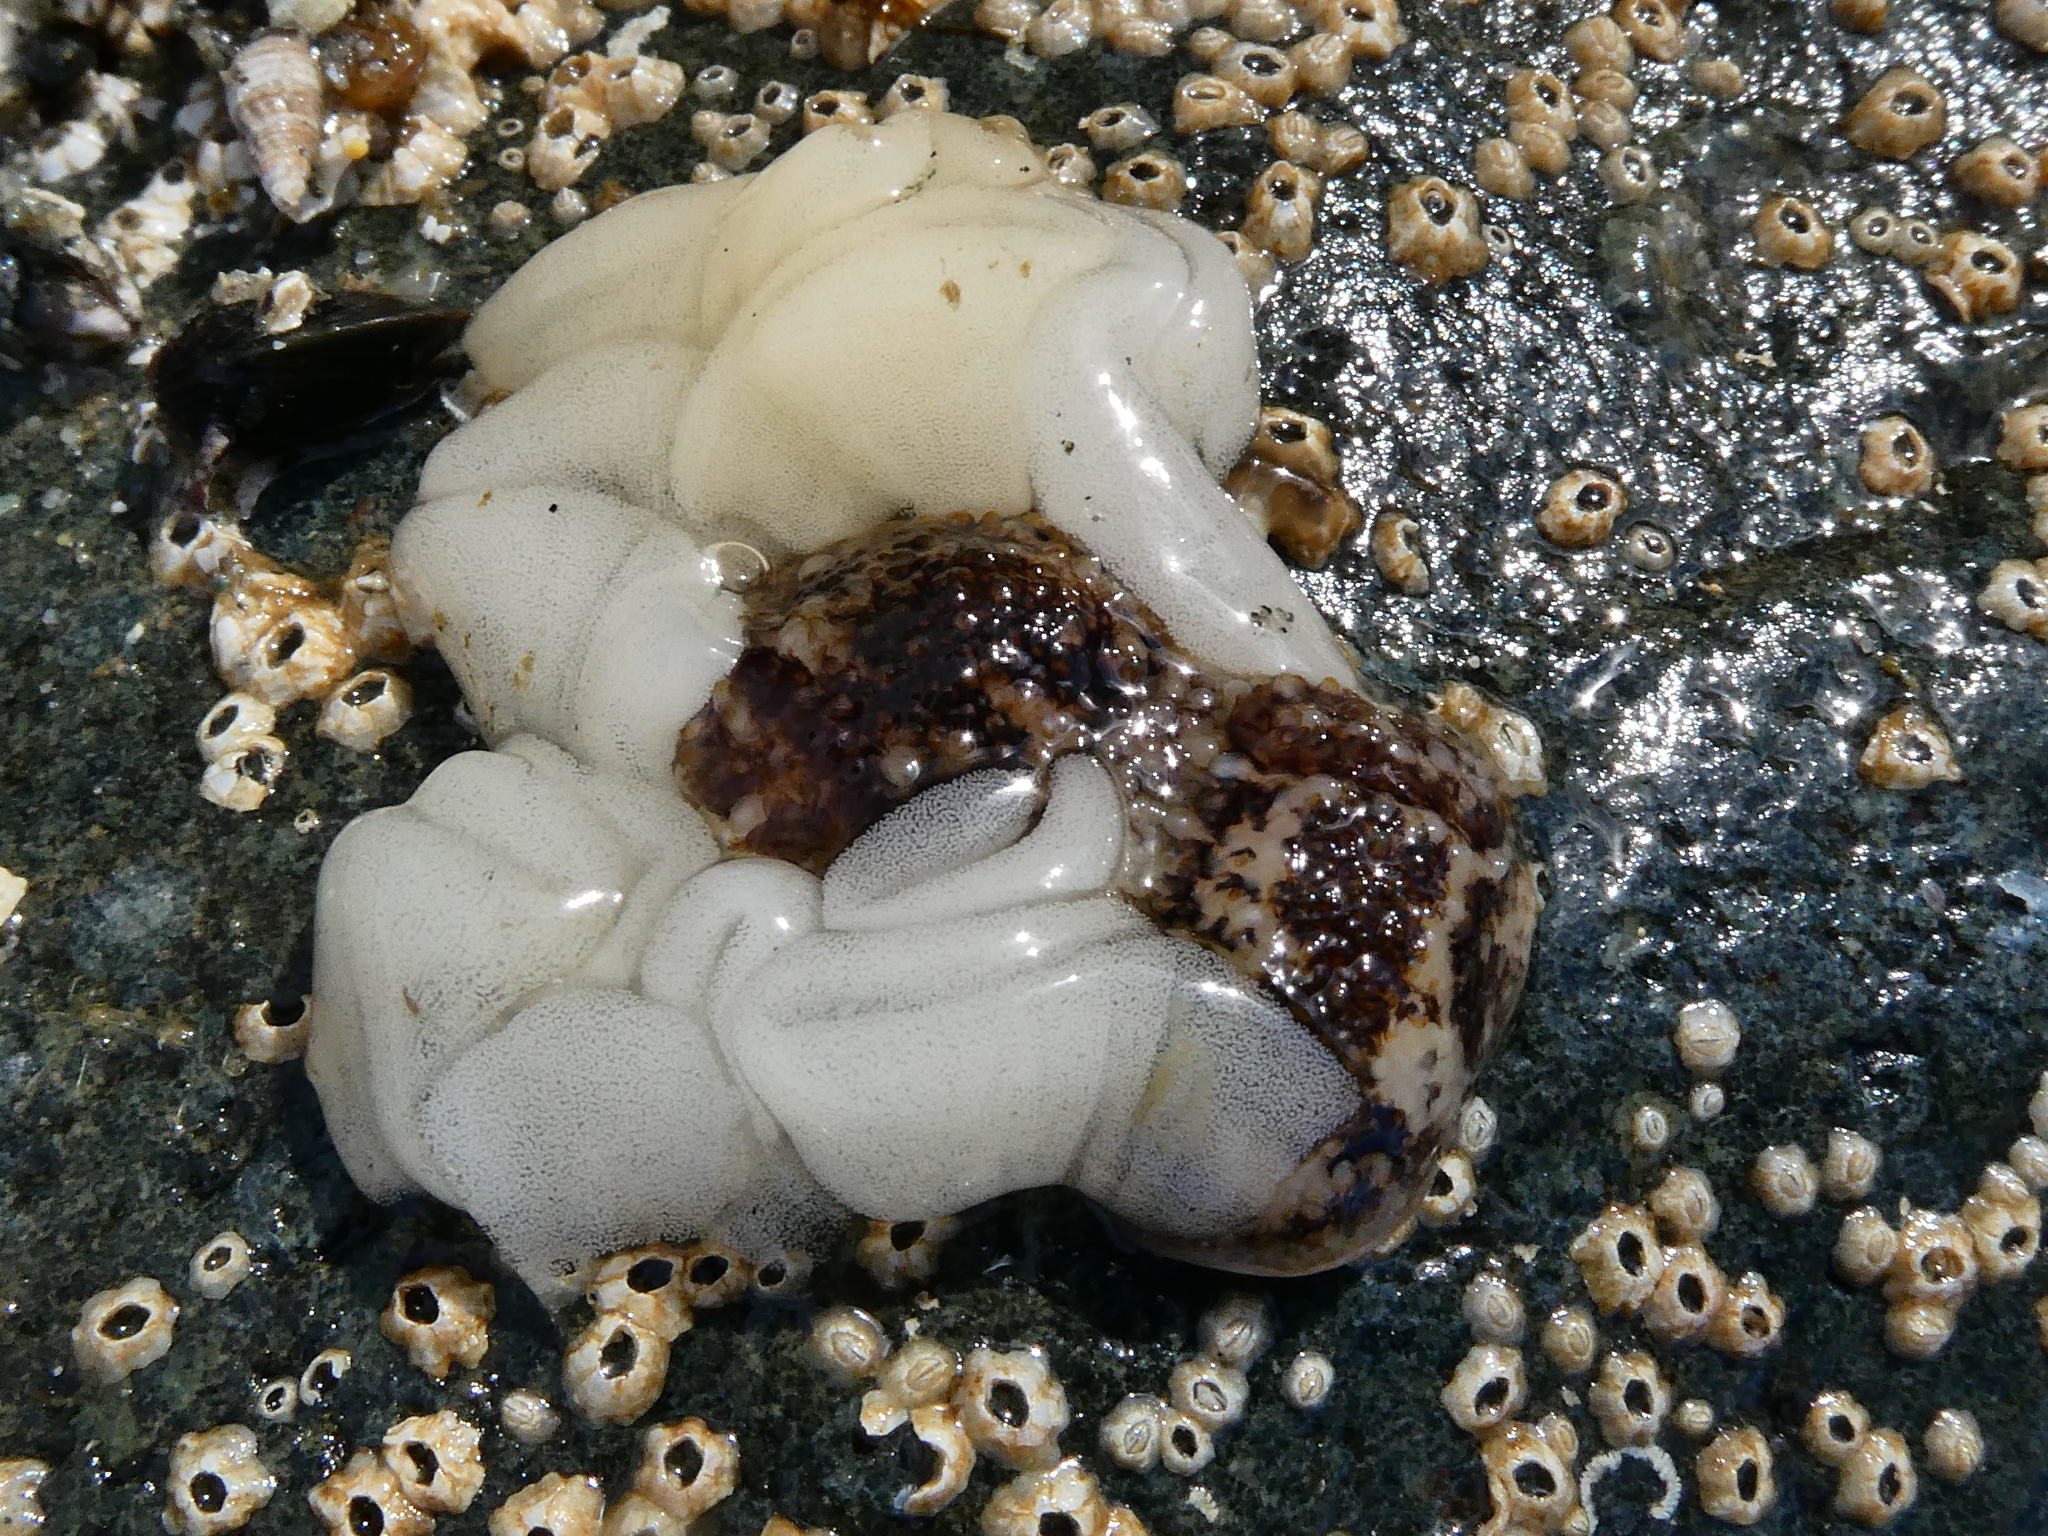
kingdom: Animalia
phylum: Mollusca
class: Gastropoda
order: Nudibranchia
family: Onchidorididae
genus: Onchidoris
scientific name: Onchidoris bilamellata
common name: Barnacle-eating onchidoris
